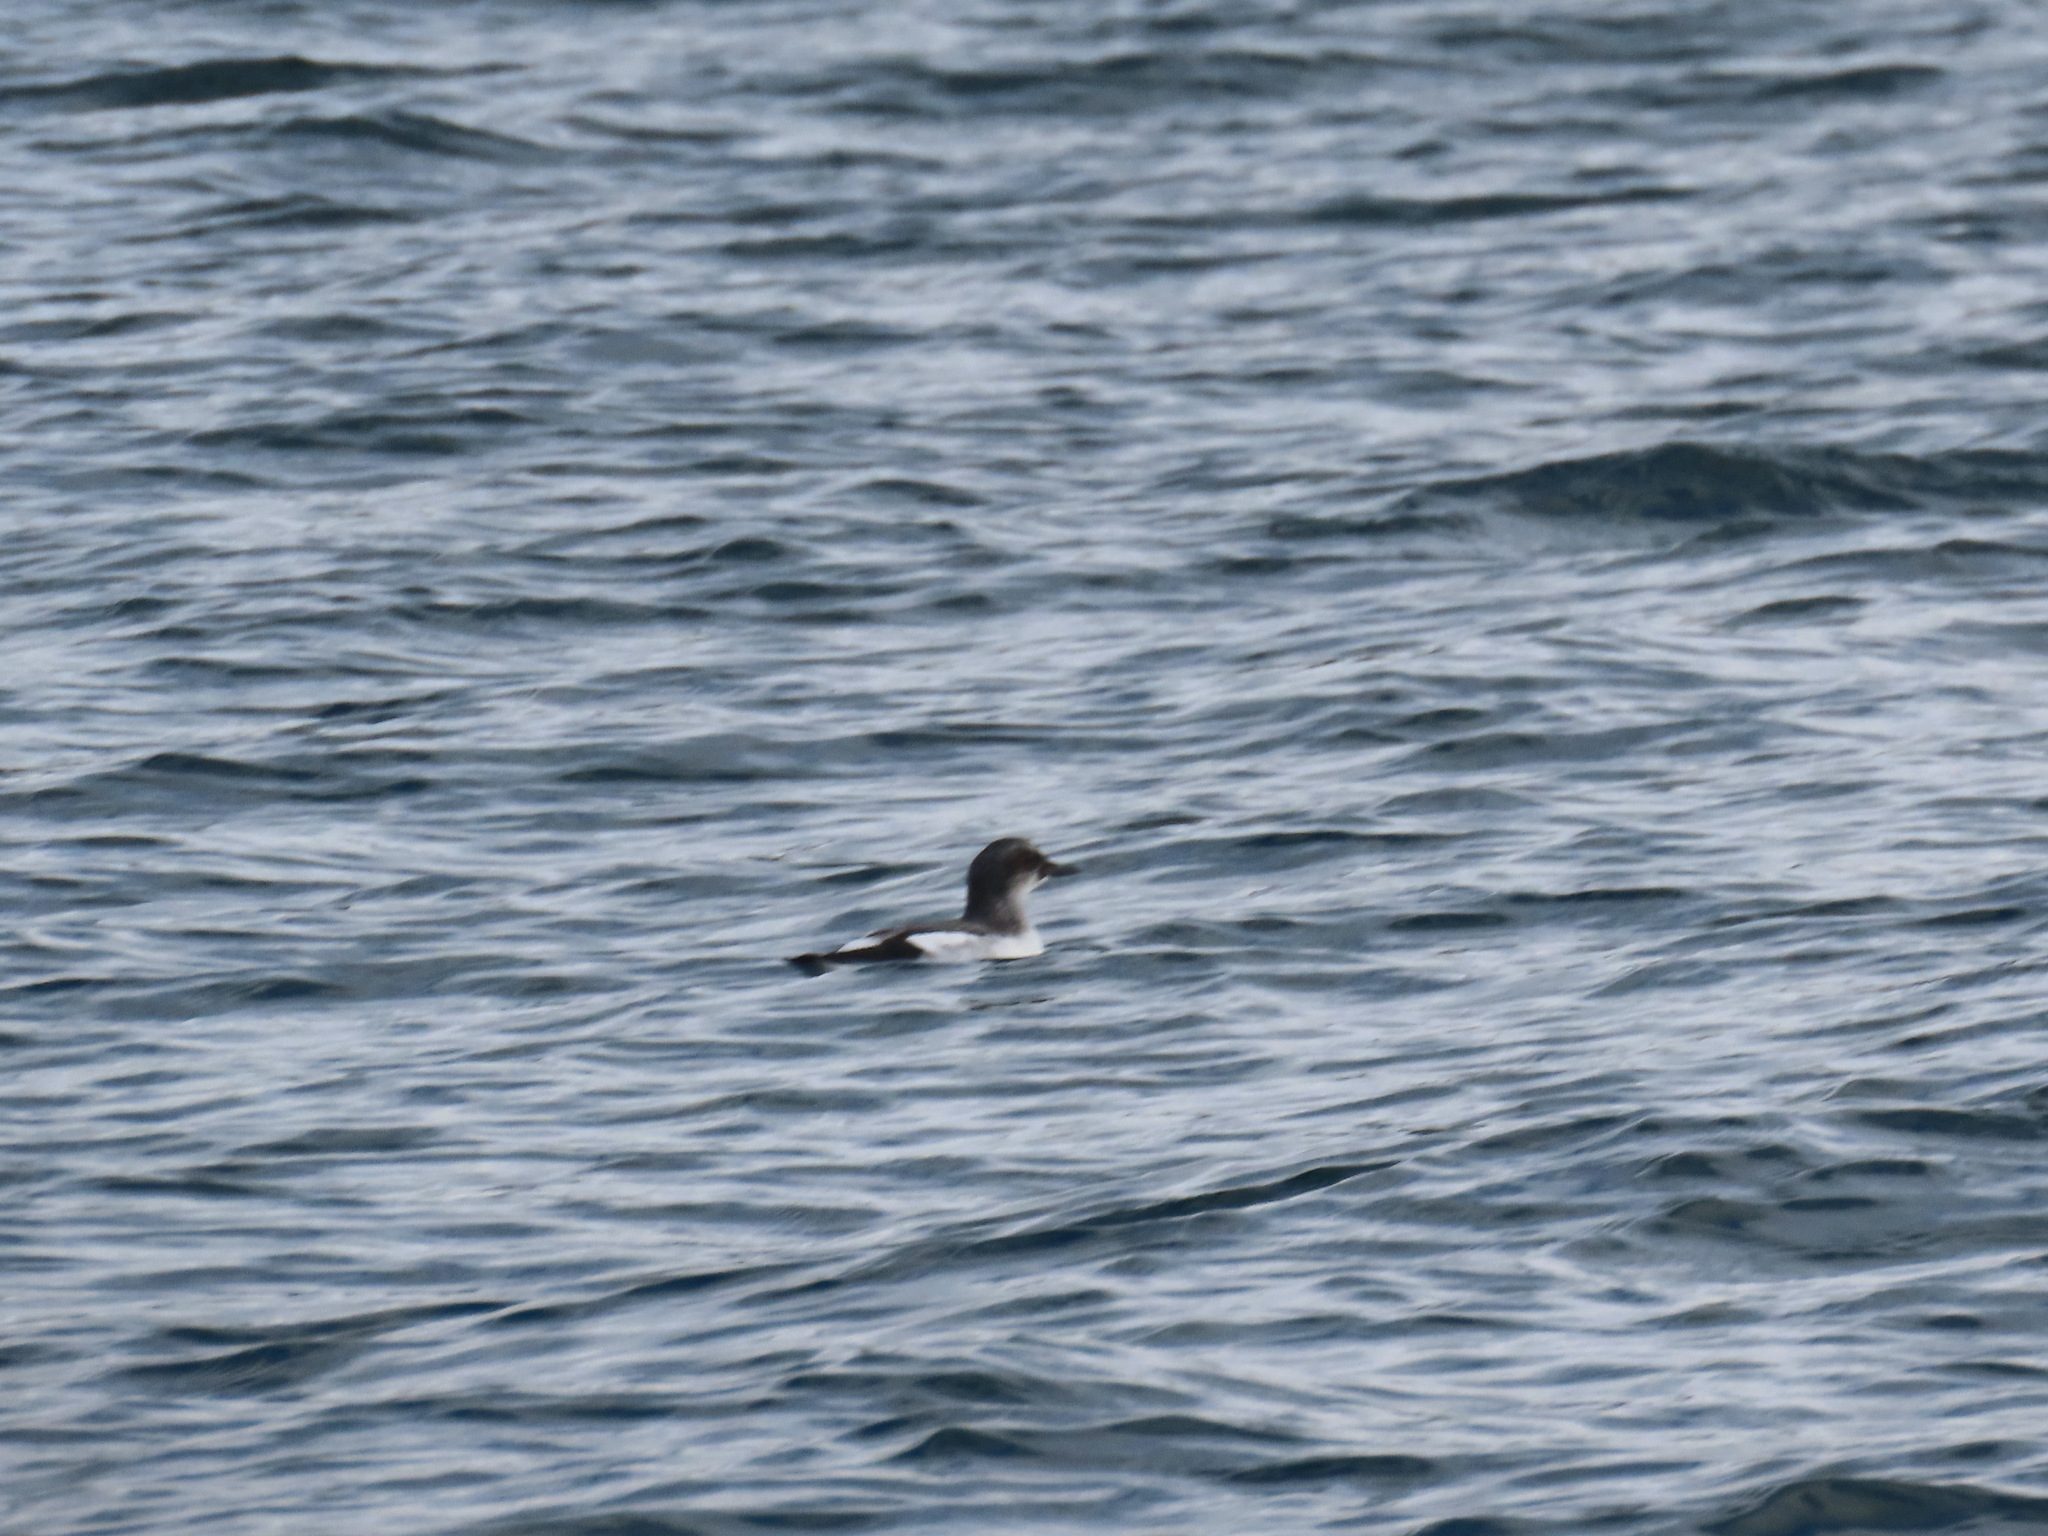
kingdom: Animalia
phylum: Chordata
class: Aves
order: Charadriiformes
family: Alcidae
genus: Cepphus
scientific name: Cepphus columba
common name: Pigeon guillemot
